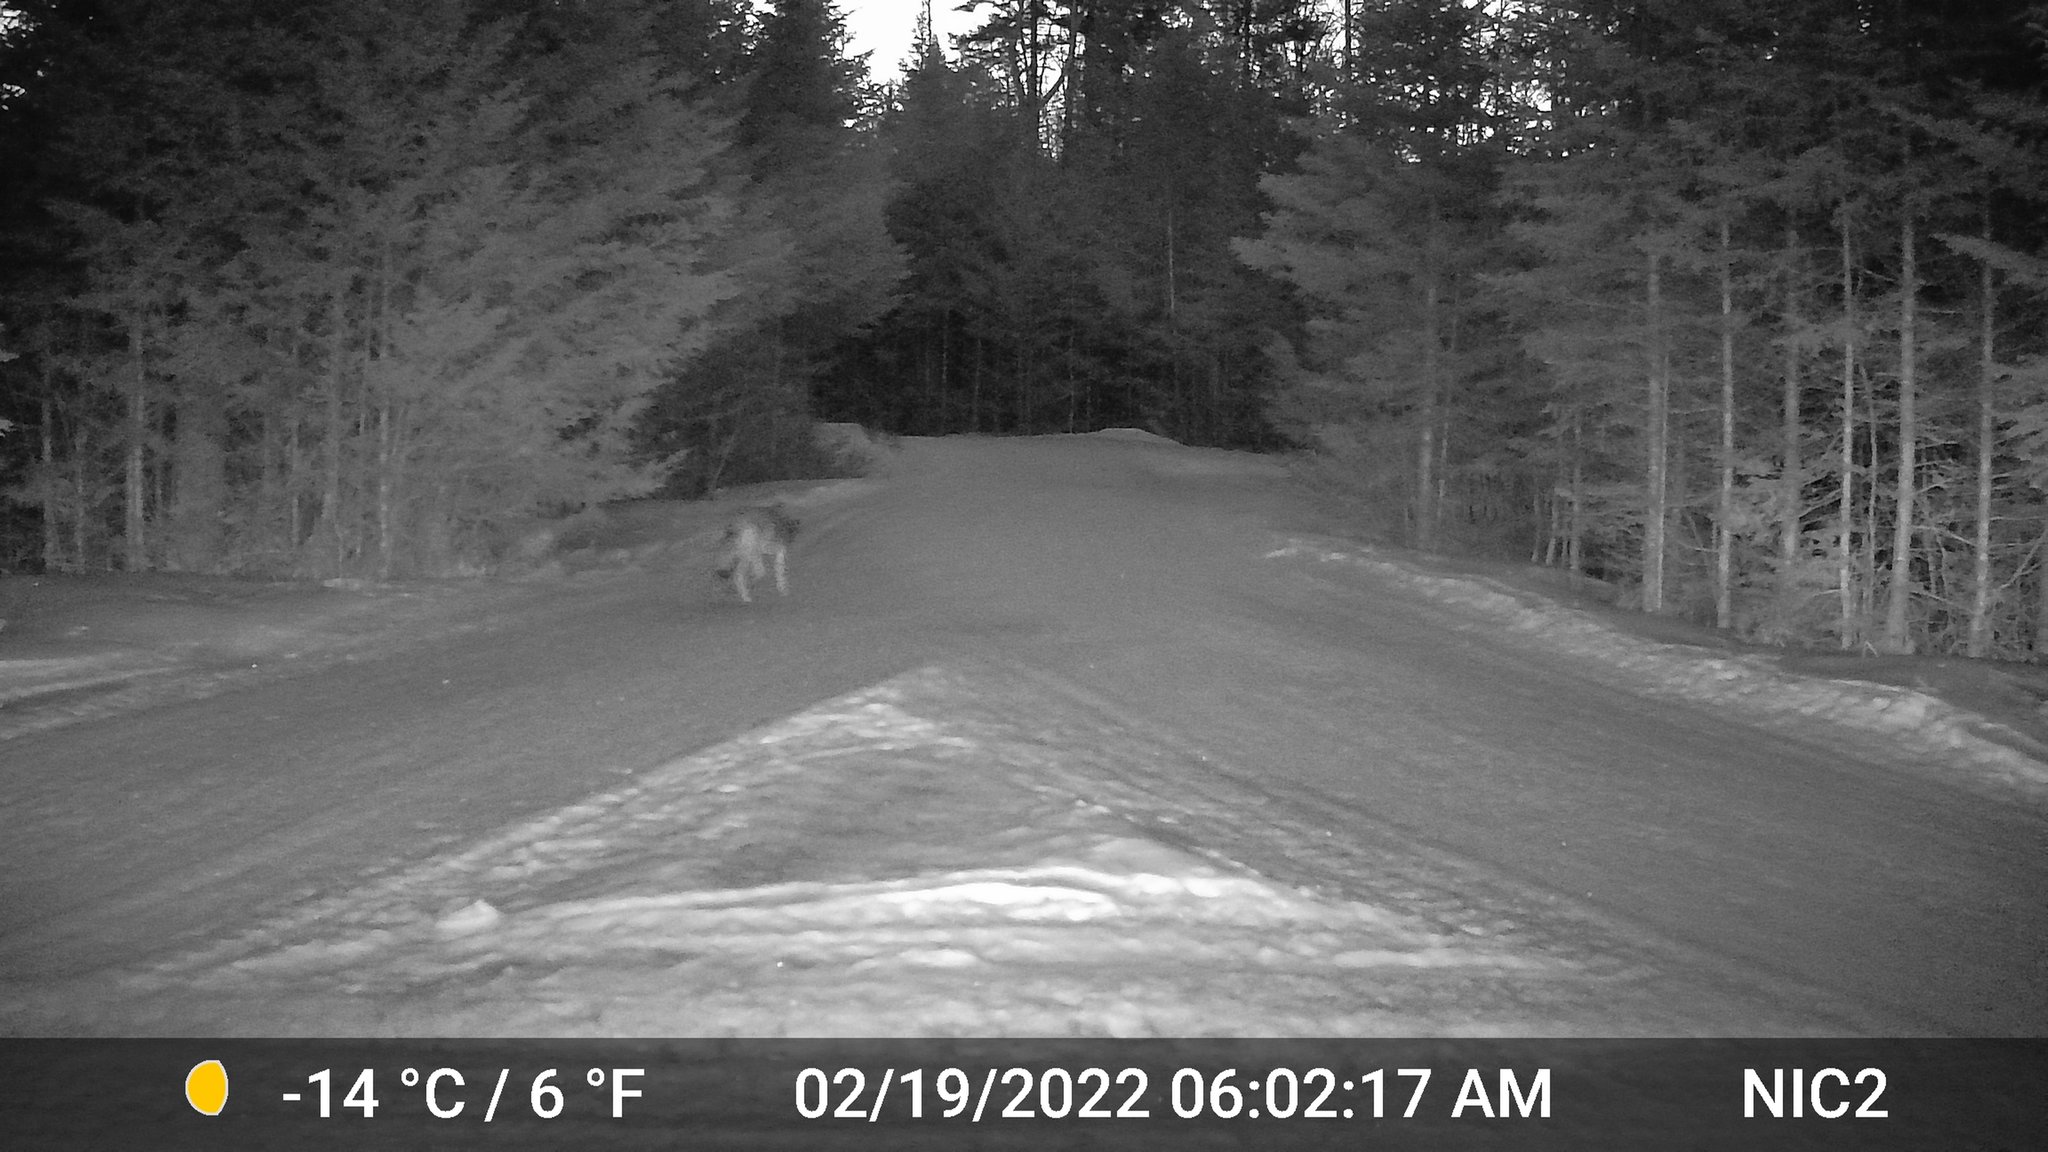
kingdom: Animalia
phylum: Chordata
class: Mammalia
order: Carnivora
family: Canidae
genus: Canis
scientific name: Canis latrans
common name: Coyote
